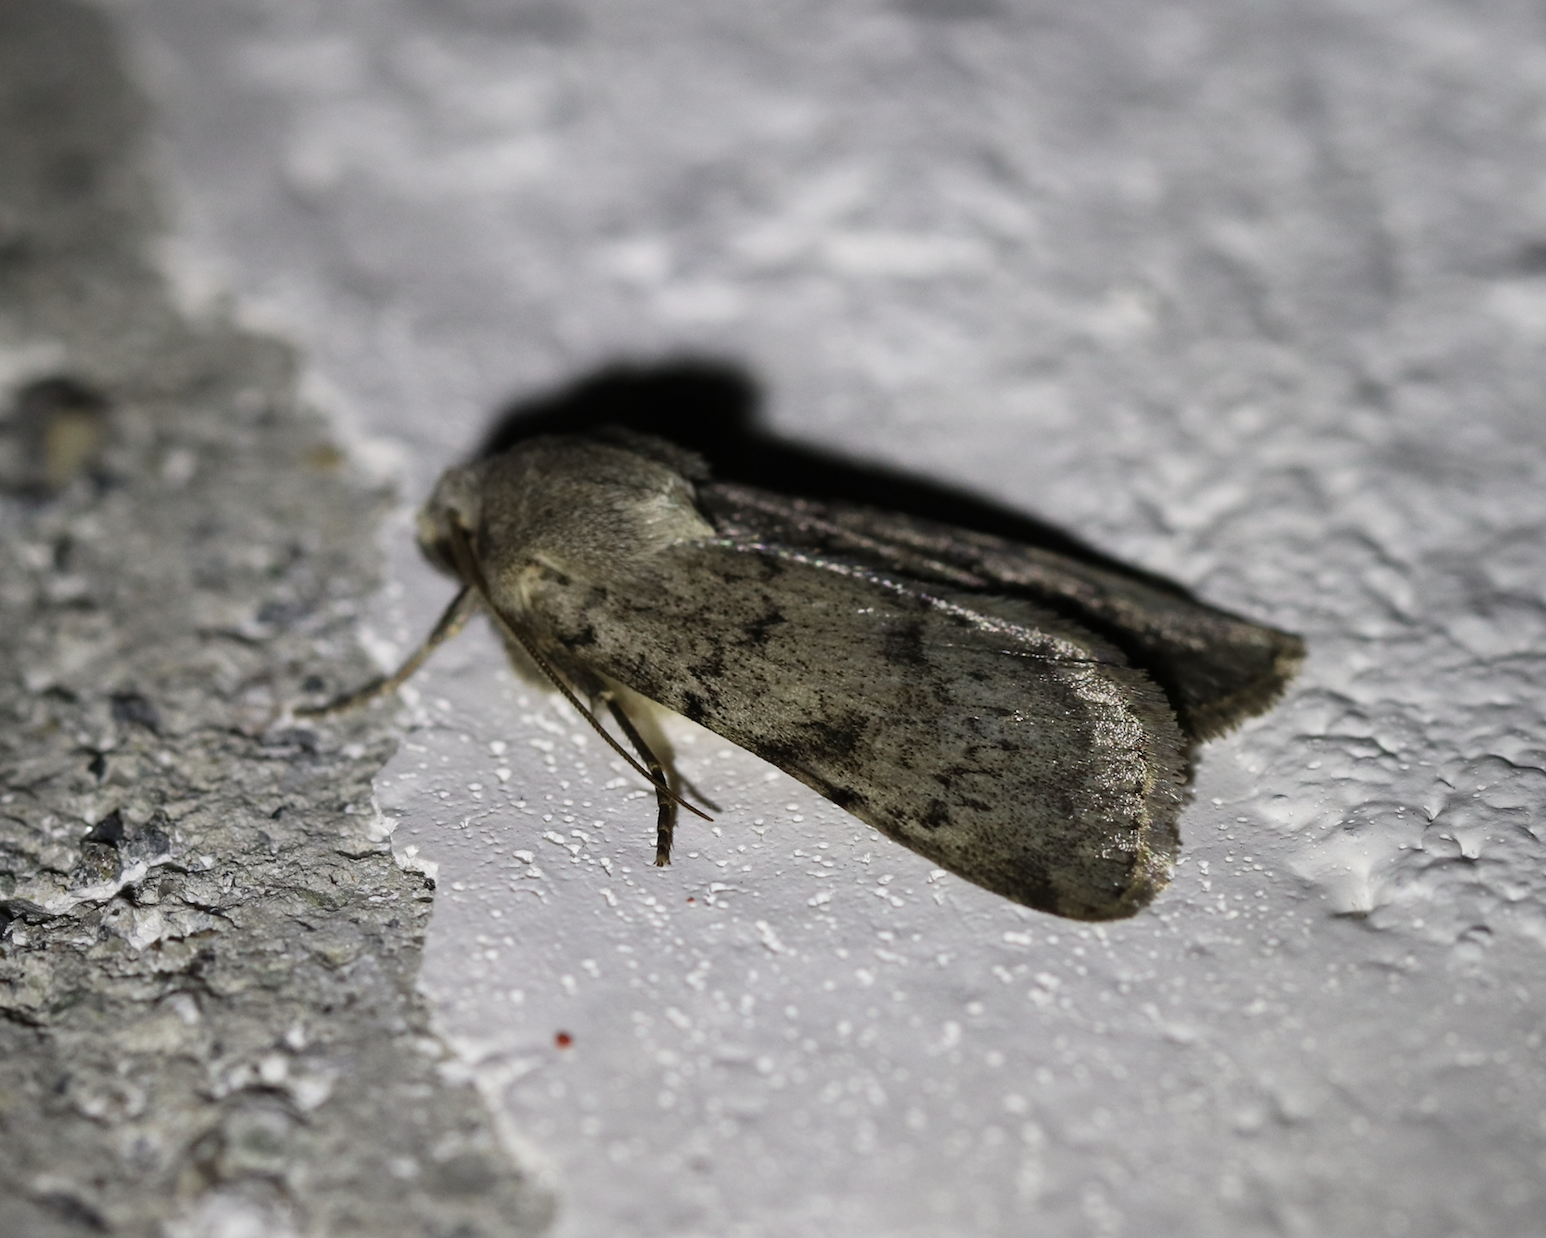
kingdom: Animalia
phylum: Arthropoda
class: Insecta
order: Lepidoptera
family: Noctuidae
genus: Epipsilia
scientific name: Epipsilia grisescens
